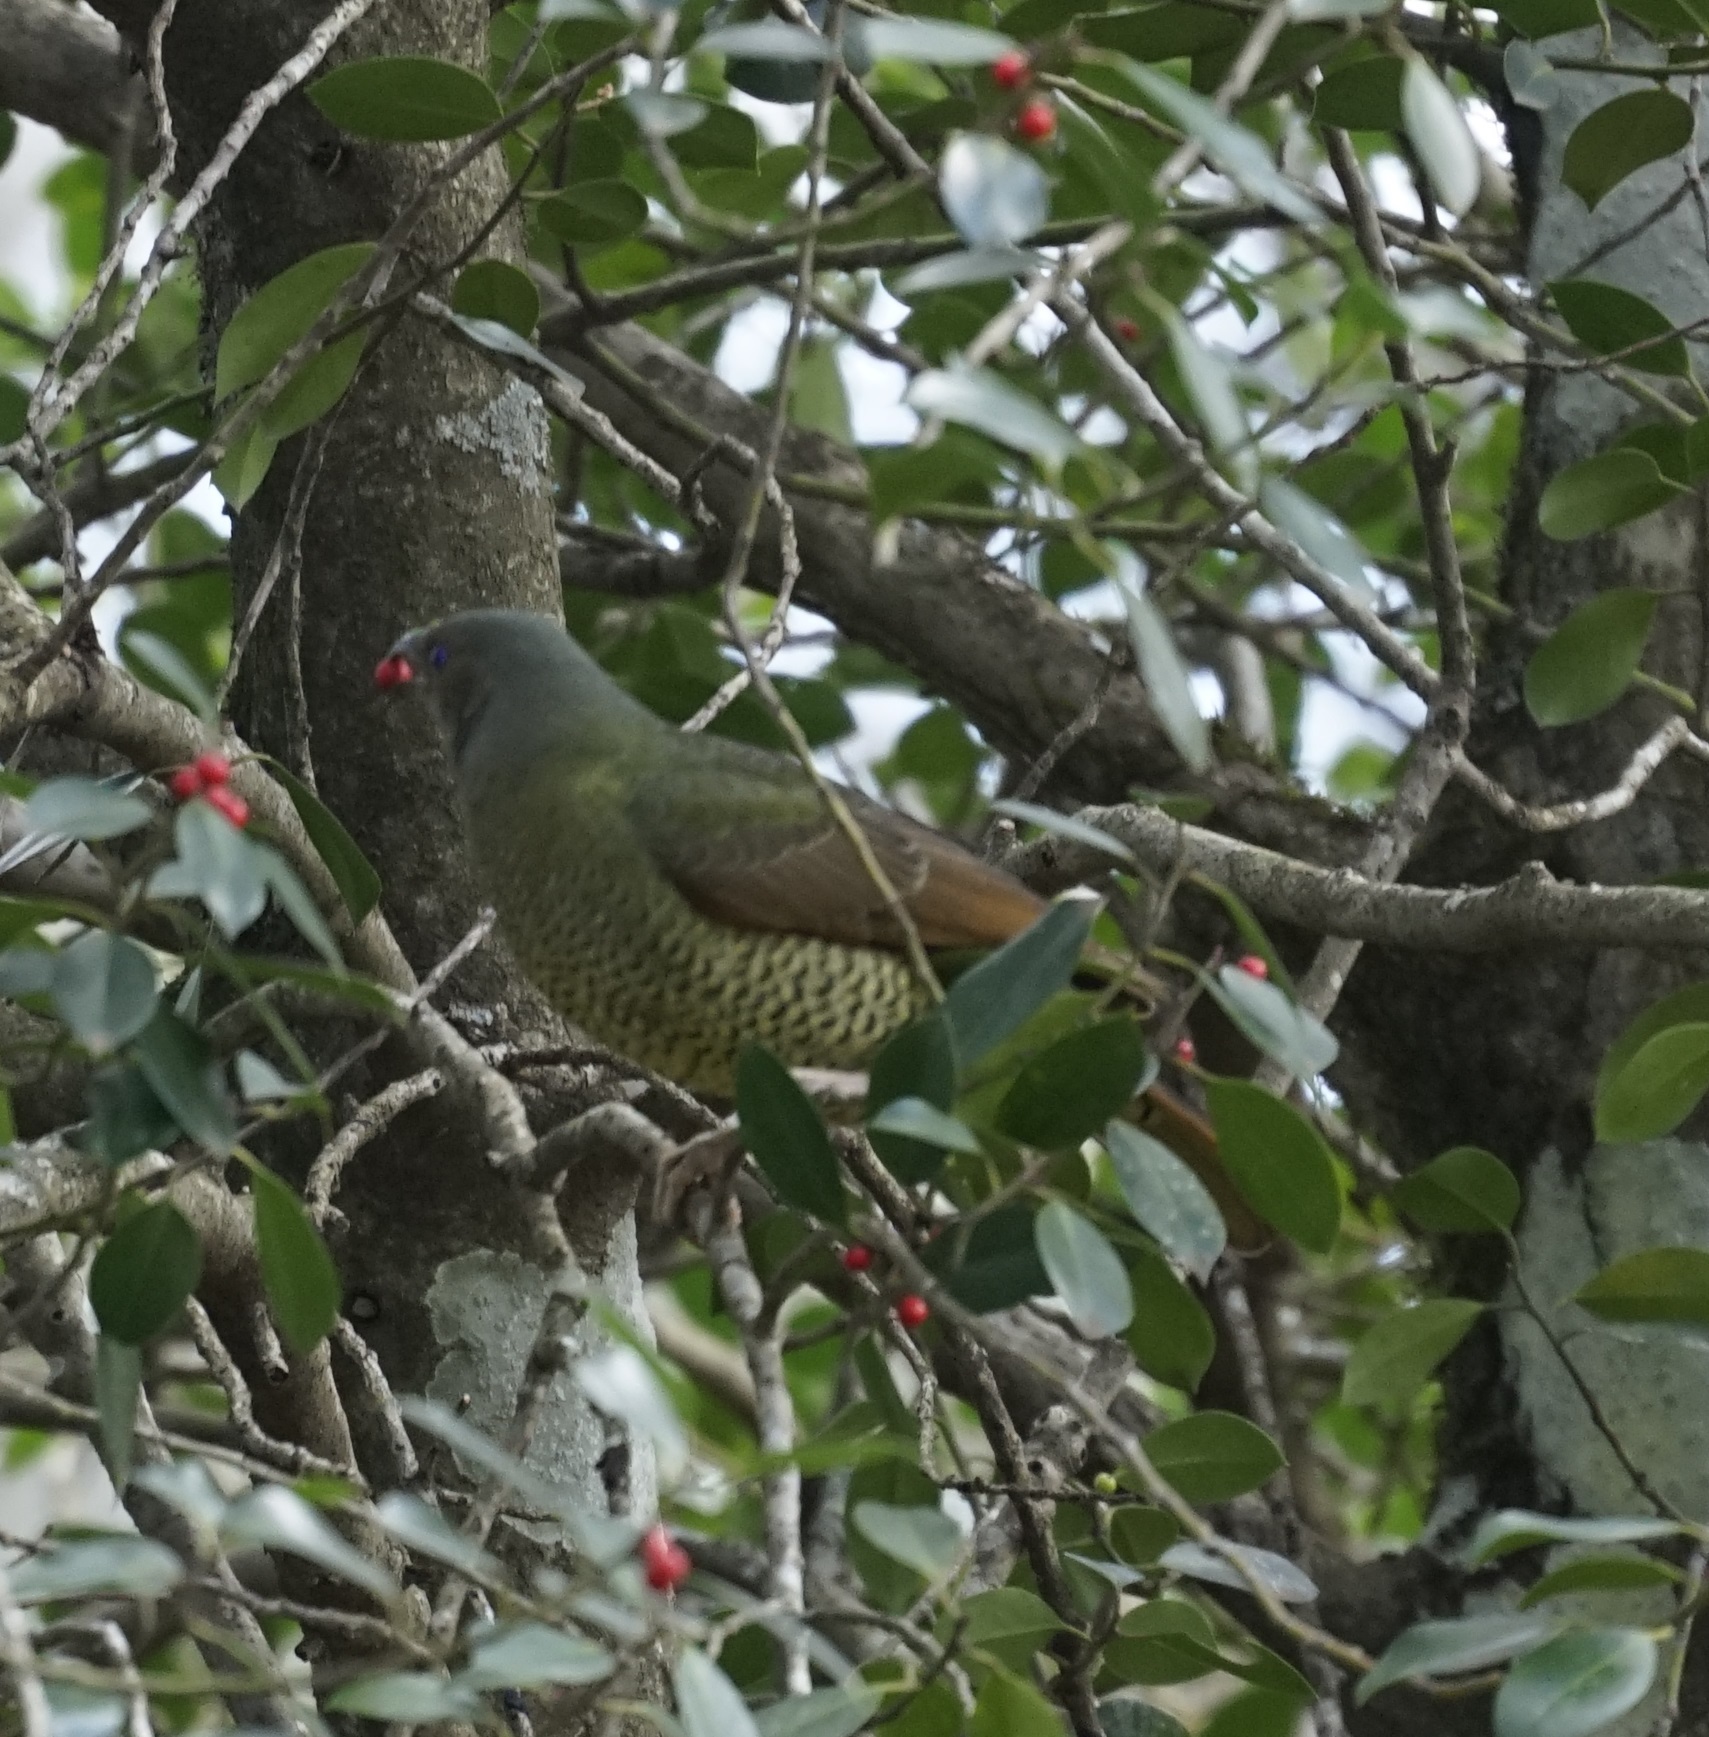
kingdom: Animalia
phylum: Chordata
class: Aves
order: Passeriformes
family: Ptilonorhynchidae
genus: Ptilonorhynchus
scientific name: Ptilonorhynchus violaceus
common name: Satin bowerbird
